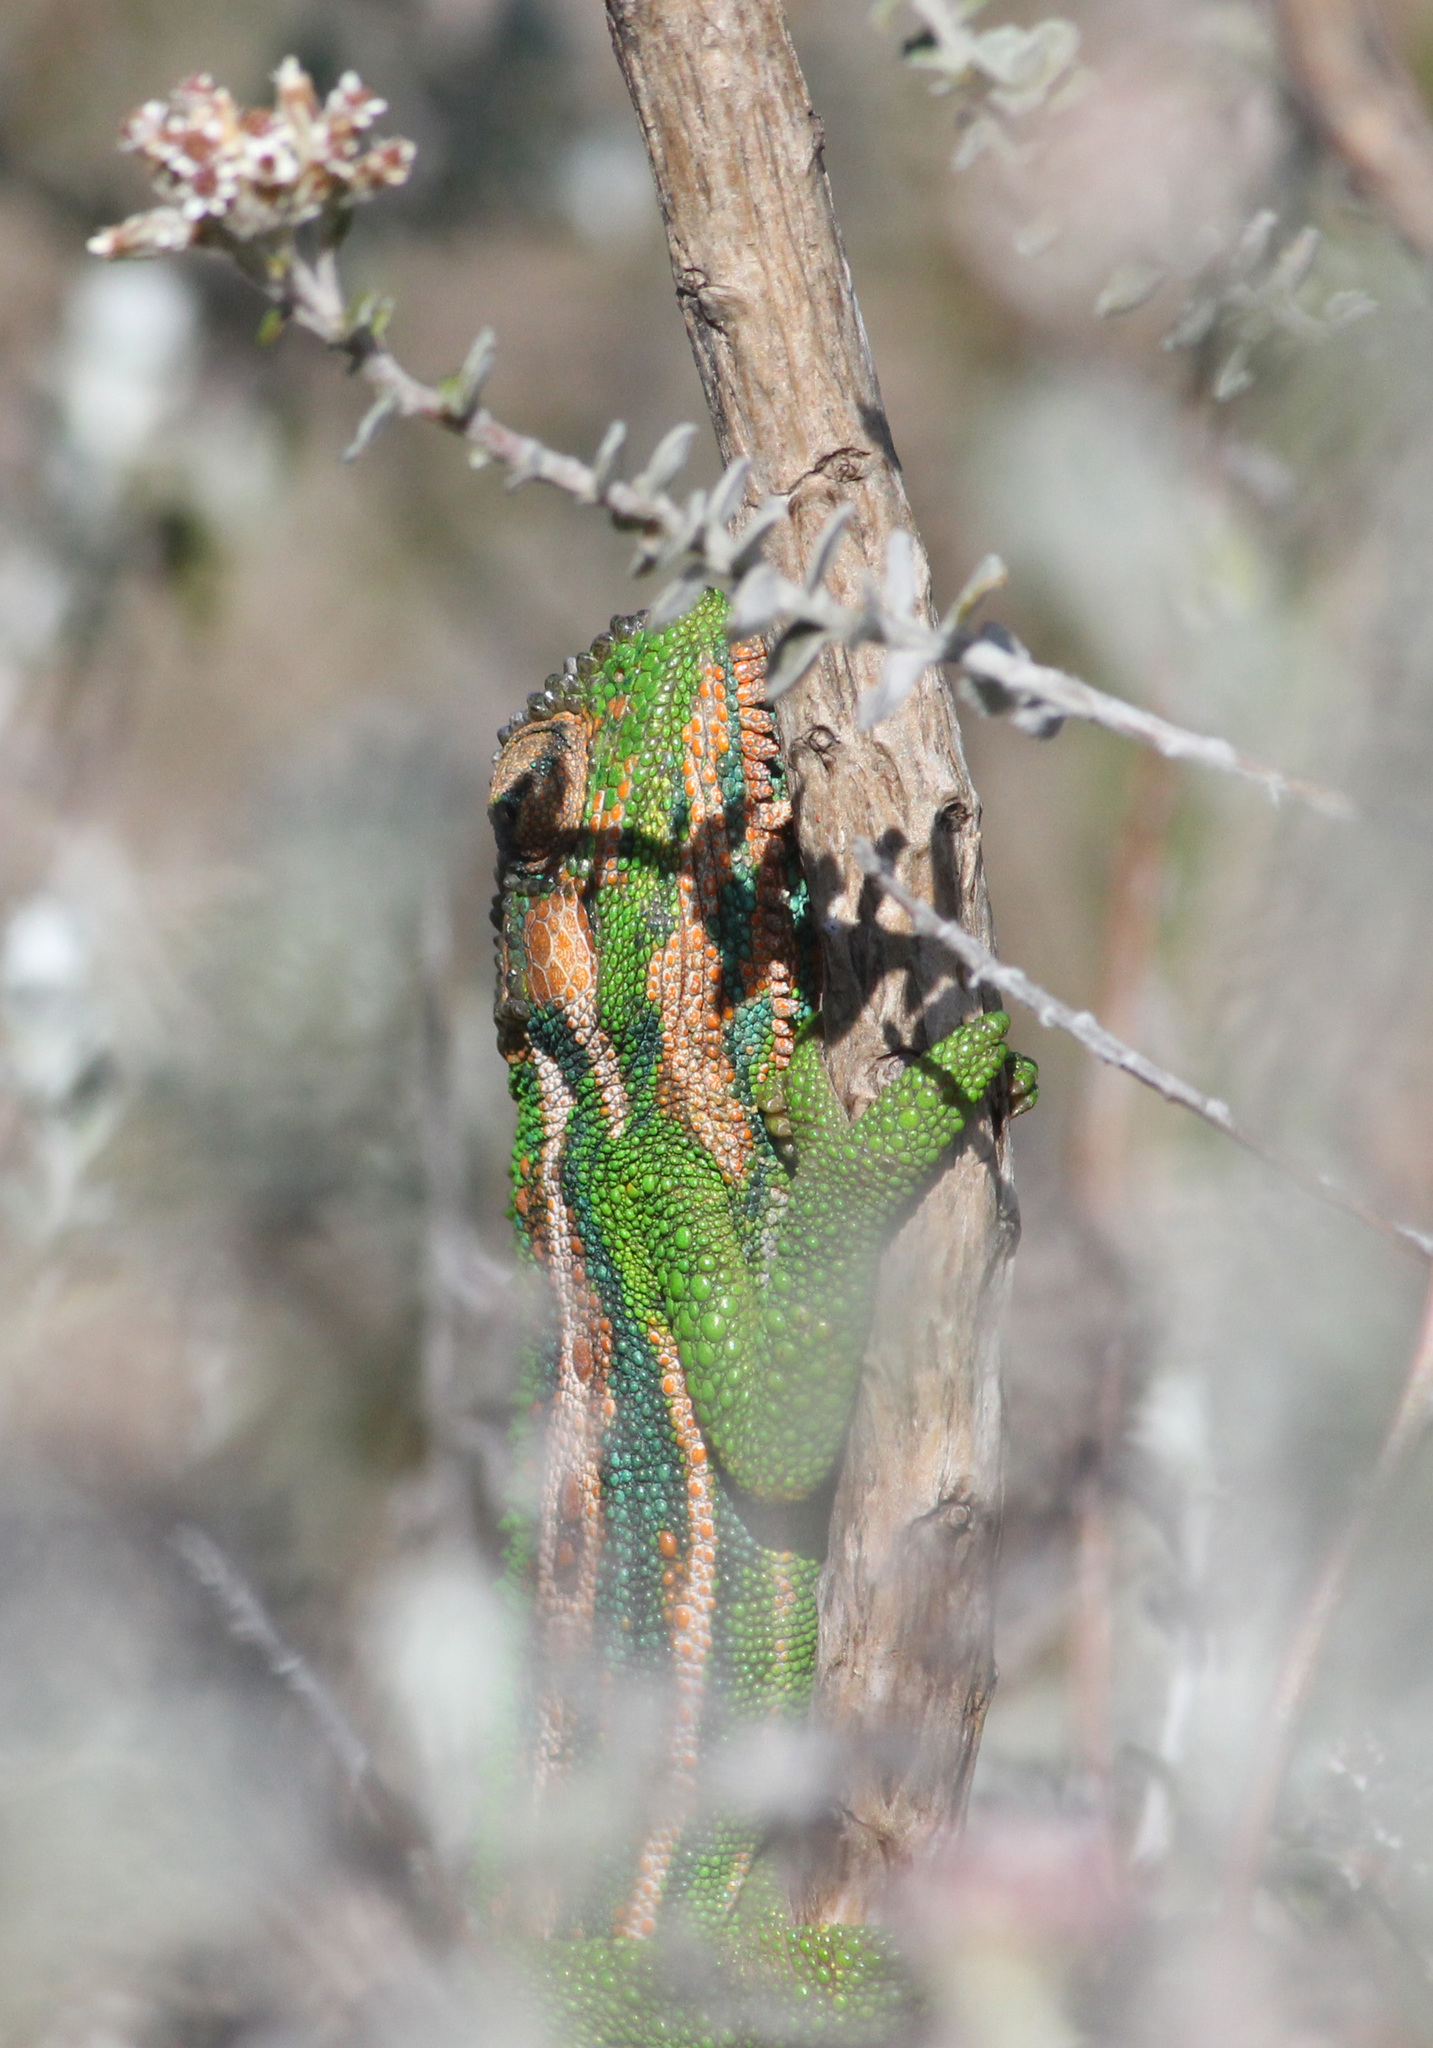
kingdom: Animalia
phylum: Chordata
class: Squamata
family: Chamaeleonidae
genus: Bradypodion
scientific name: Bradypodion pumilum
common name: Cape dwarf chameleon
